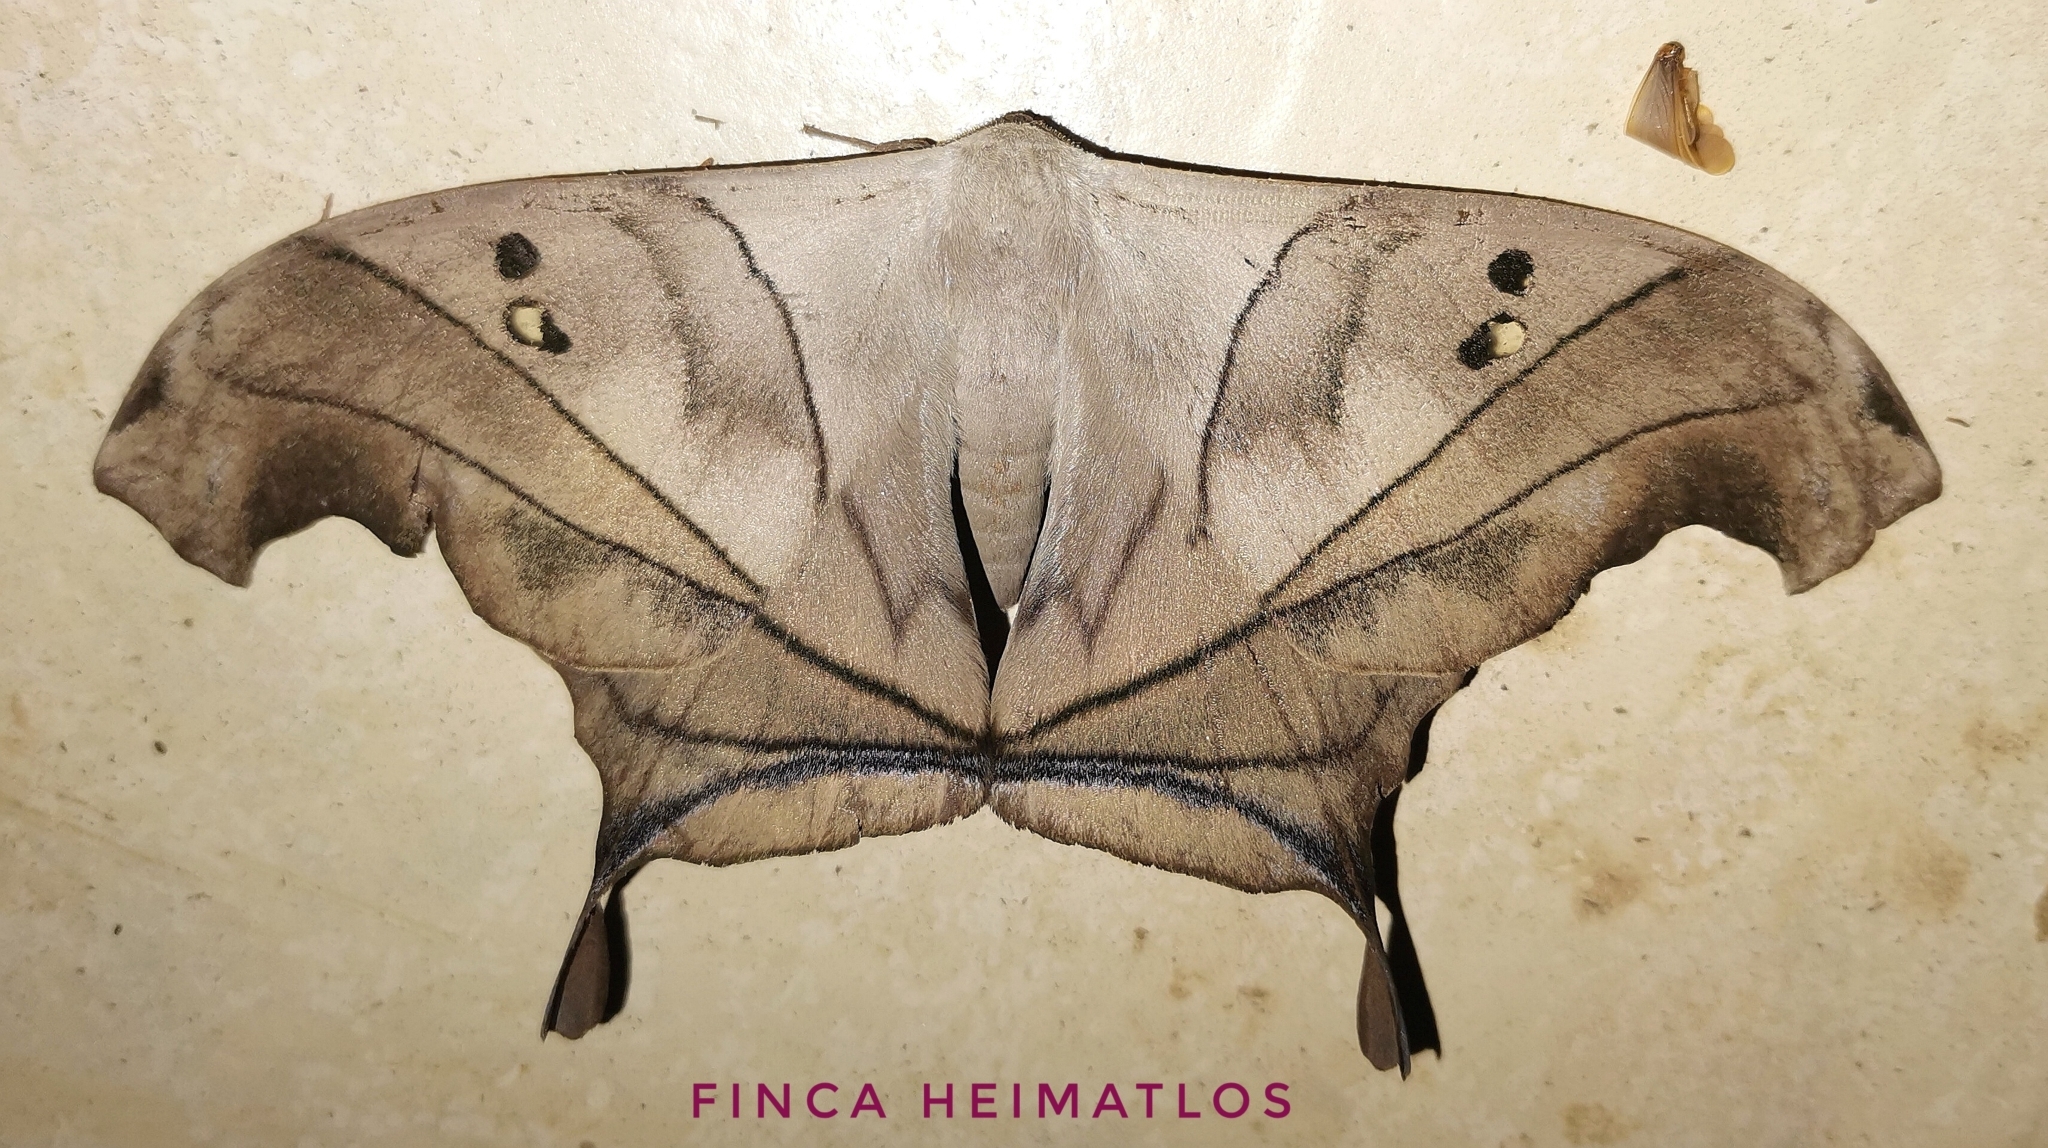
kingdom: Animalia
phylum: Arthropoda
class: Insecta
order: Lepidoptera
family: Saturniidae
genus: Dysdaemonia
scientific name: Dysdaemonia australoboreas
